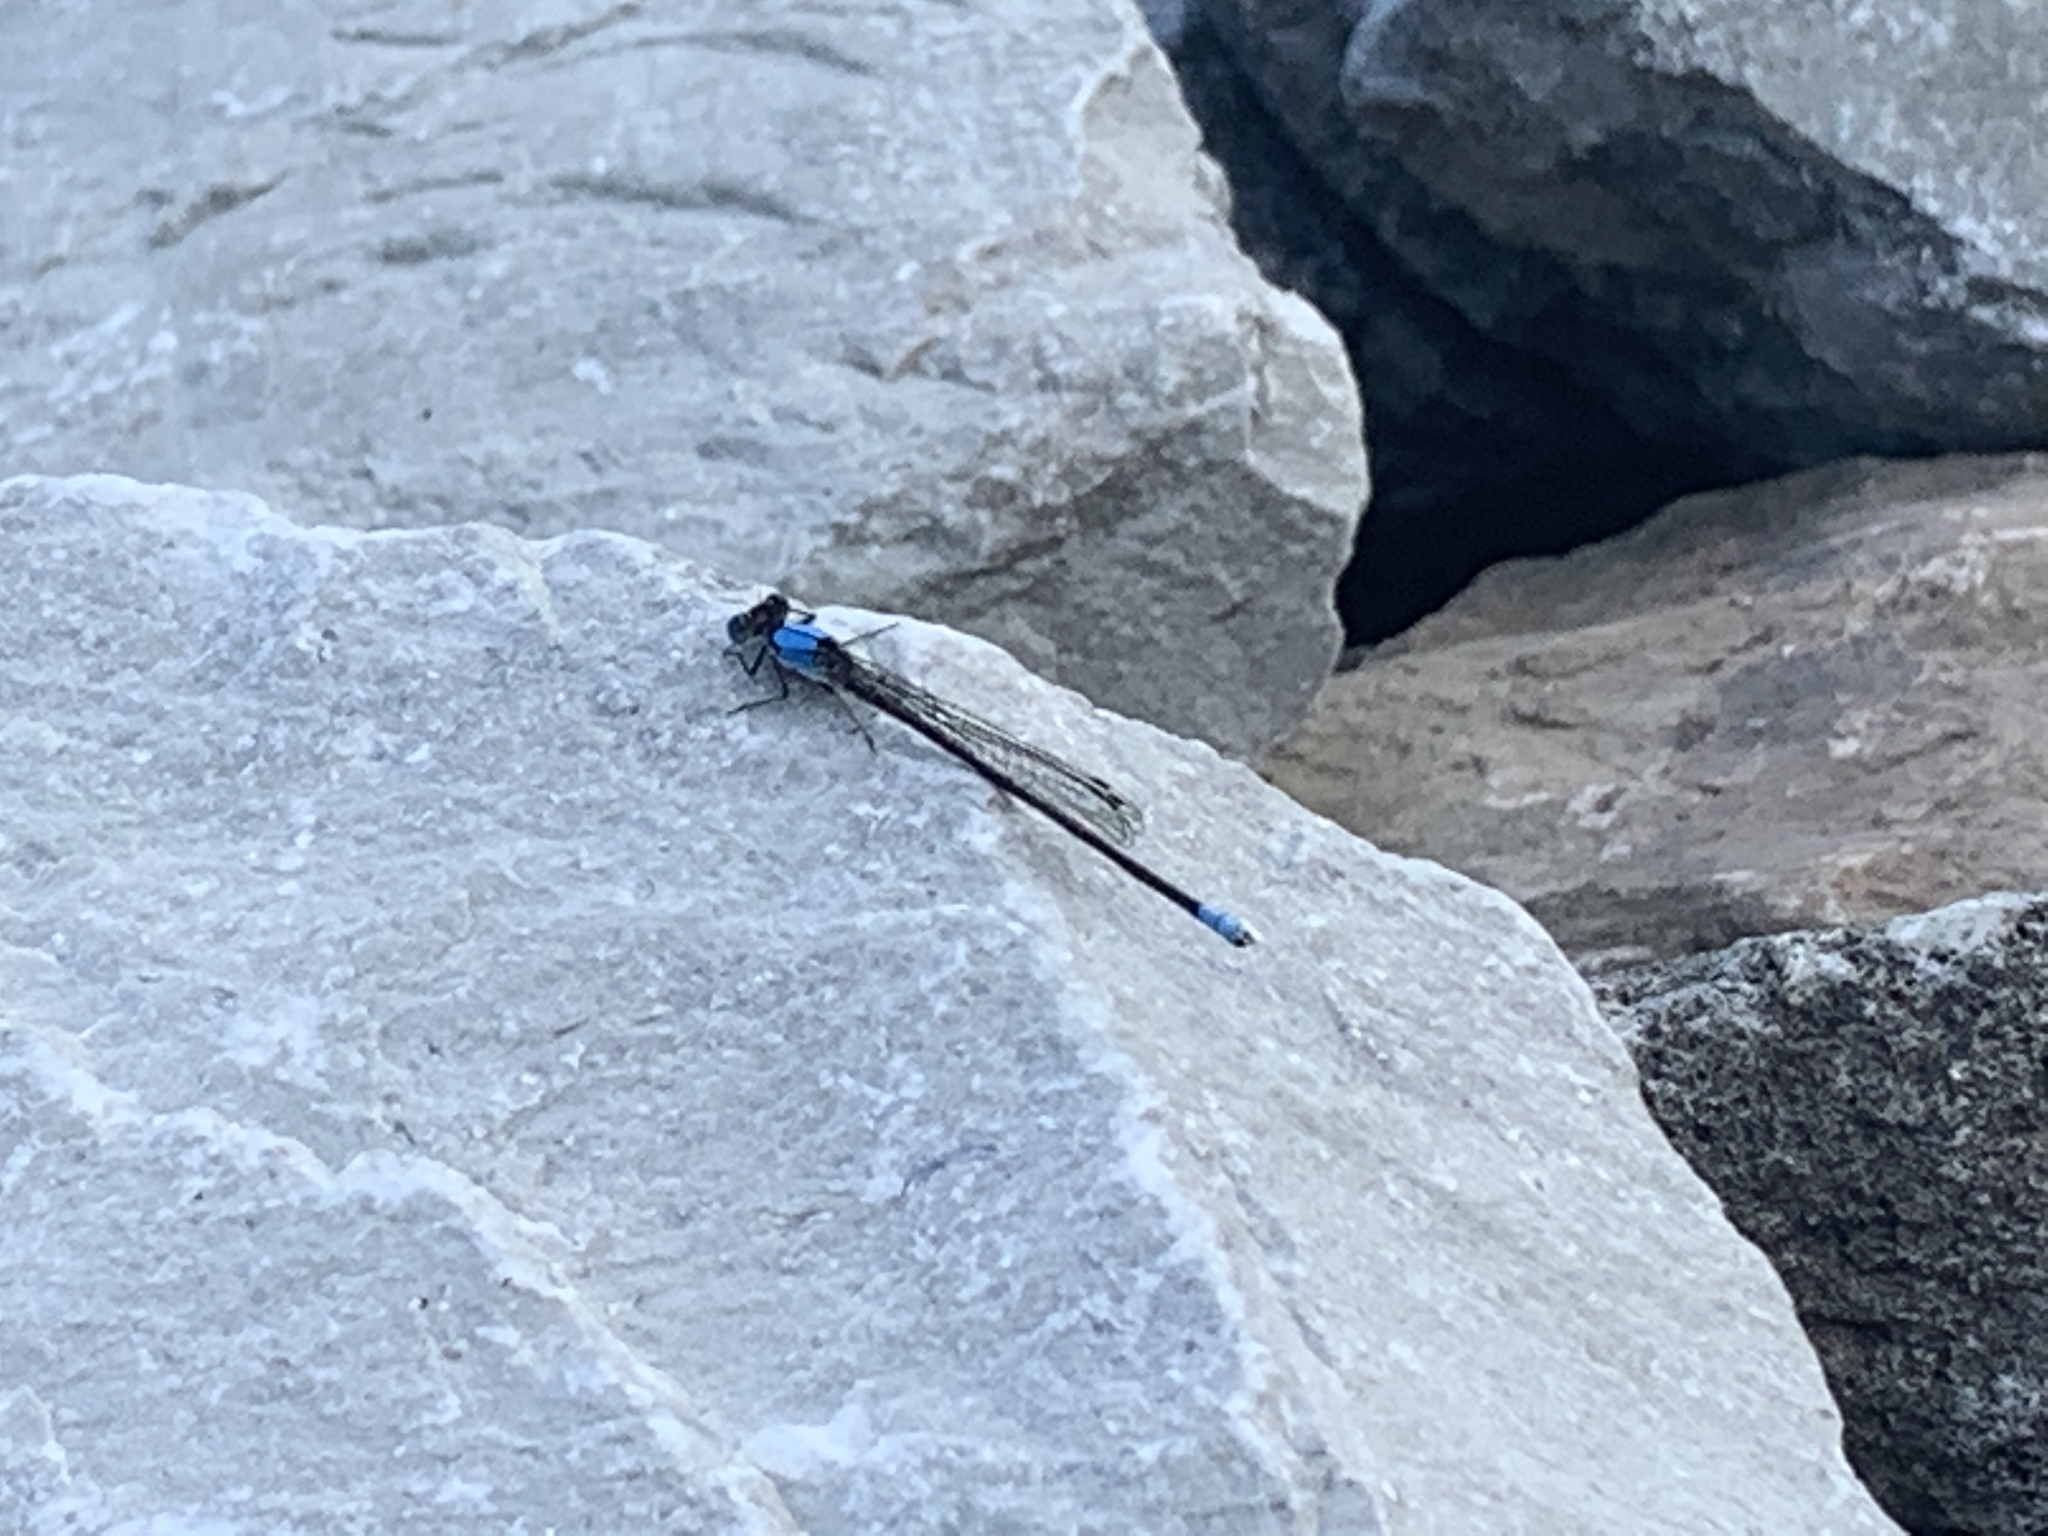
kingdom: Animalia
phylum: Arthropoda
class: Insecta
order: Odonata
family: Coenagrionidae
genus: Argia
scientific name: Argia apicalis
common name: Blue-fronted dancer
